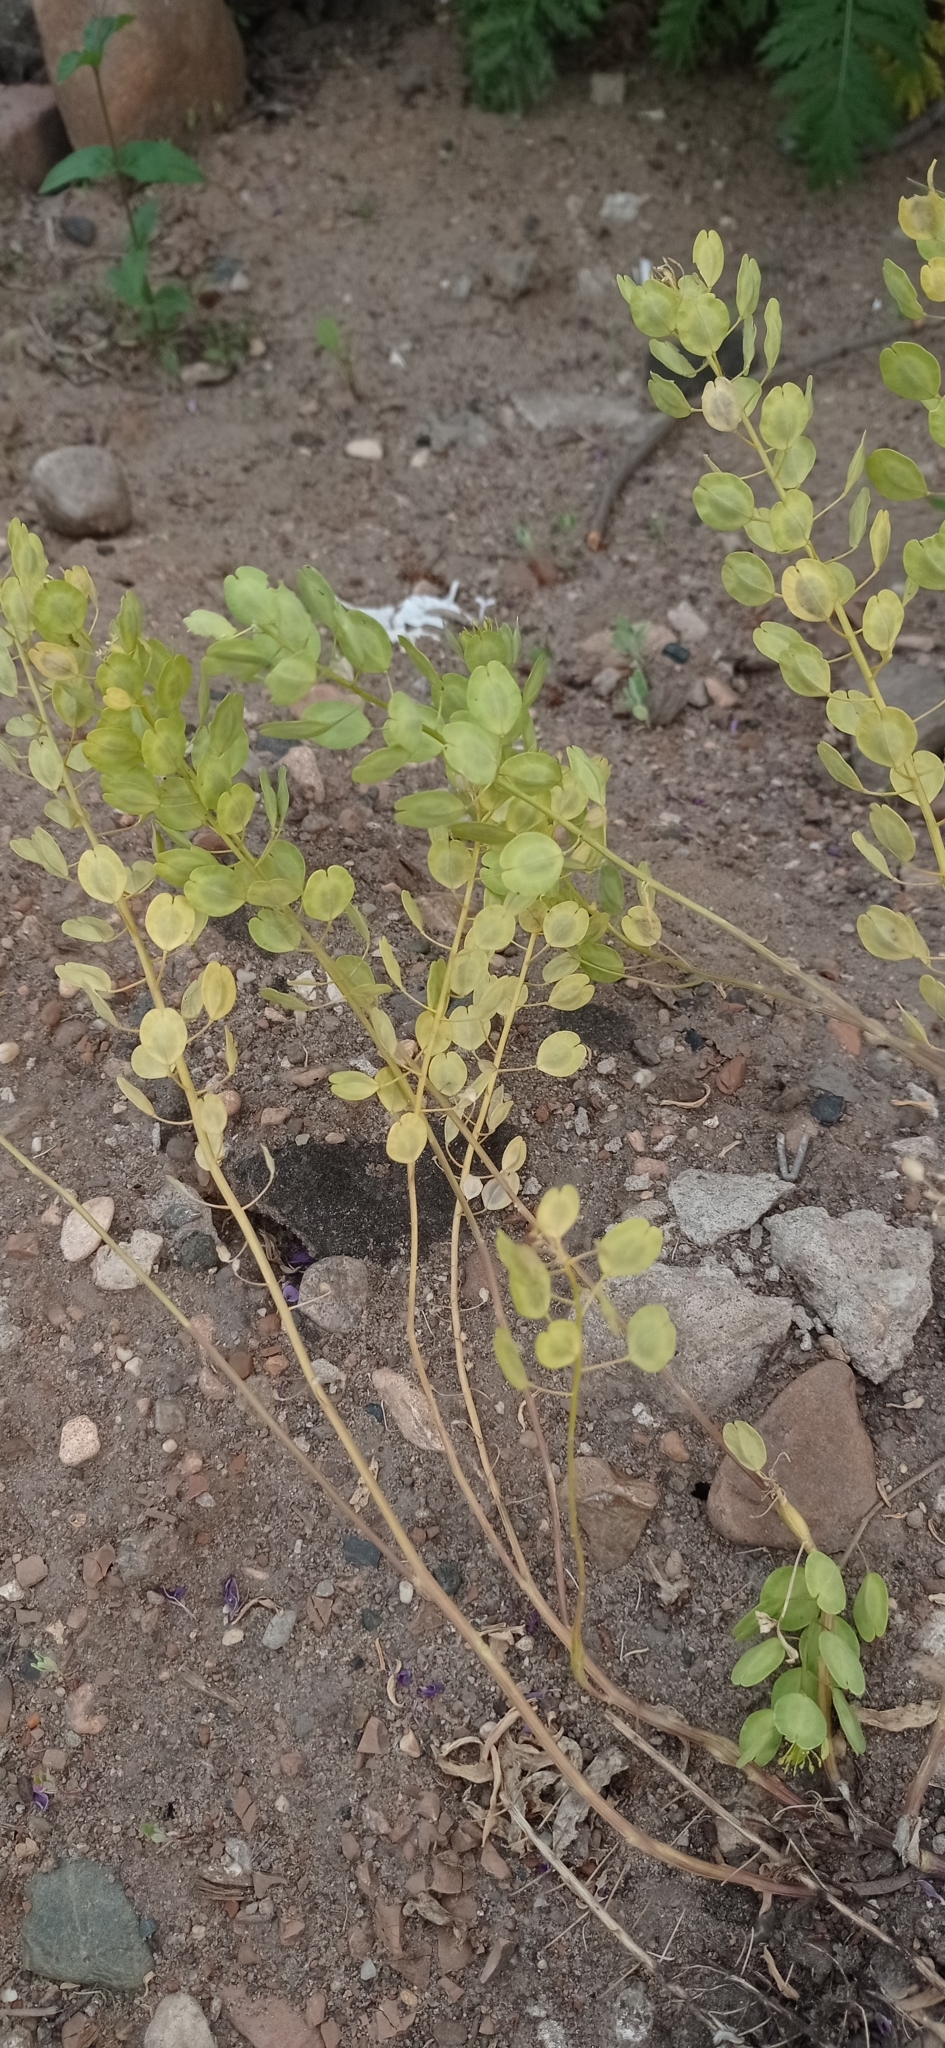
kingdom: Plantae
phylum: Tracheophyta
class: Magnoliopsida
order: Brassicales
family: Brassicaceae
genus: Thlaspi
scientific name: Thlaspi arvense
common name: Field pennycress
